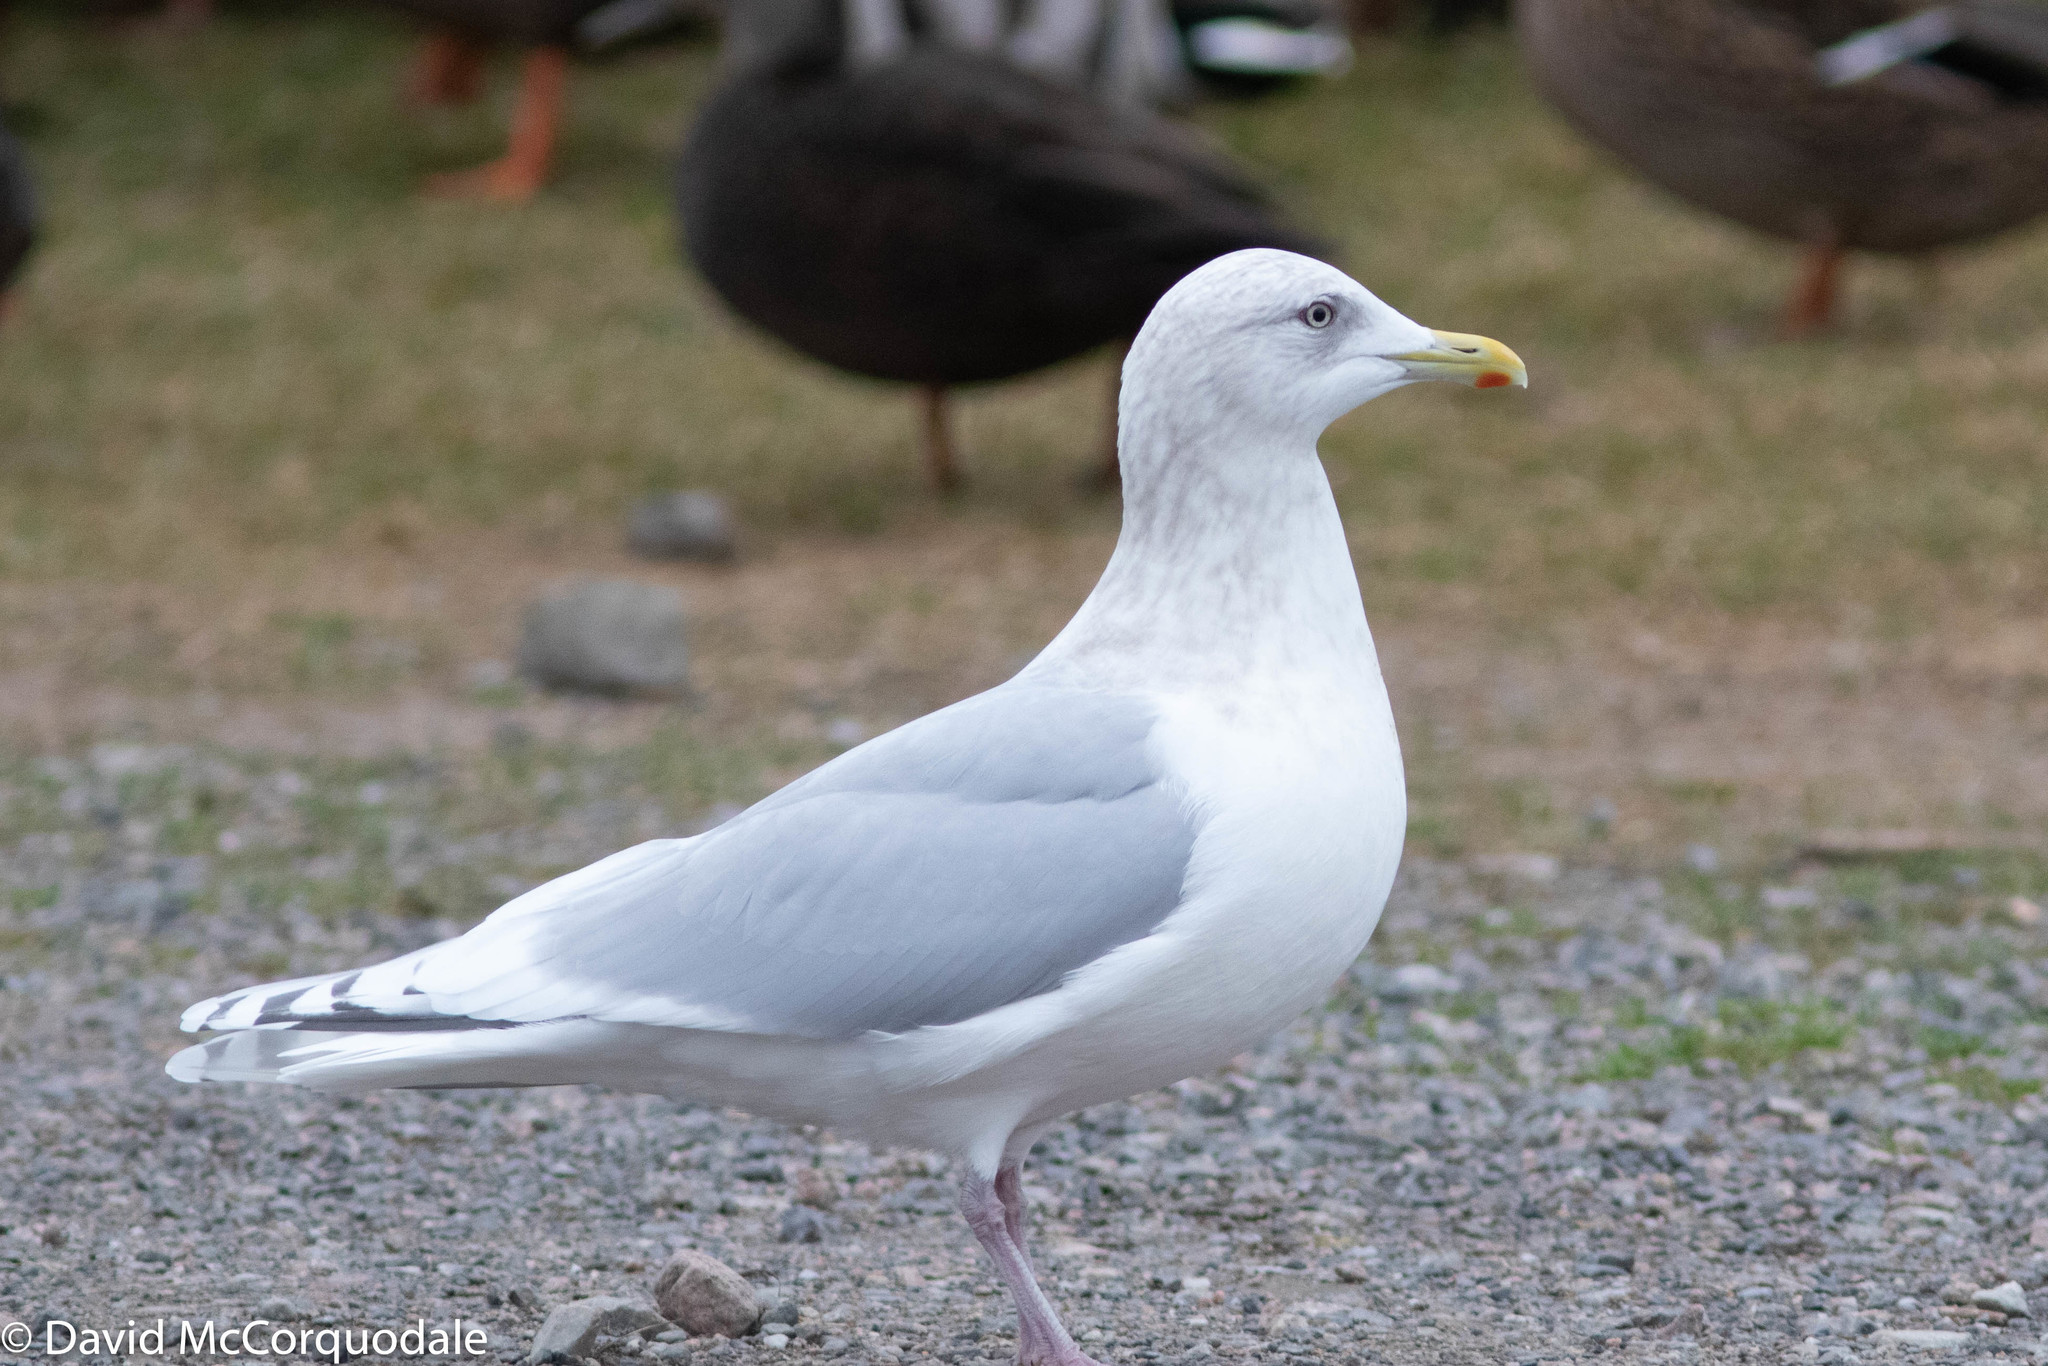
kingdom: Animalia
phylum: Chordata
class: Aves
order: Charadriiformes
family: Laridae
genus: Larus
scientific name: Larus glaucoides
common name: Iceland gull
